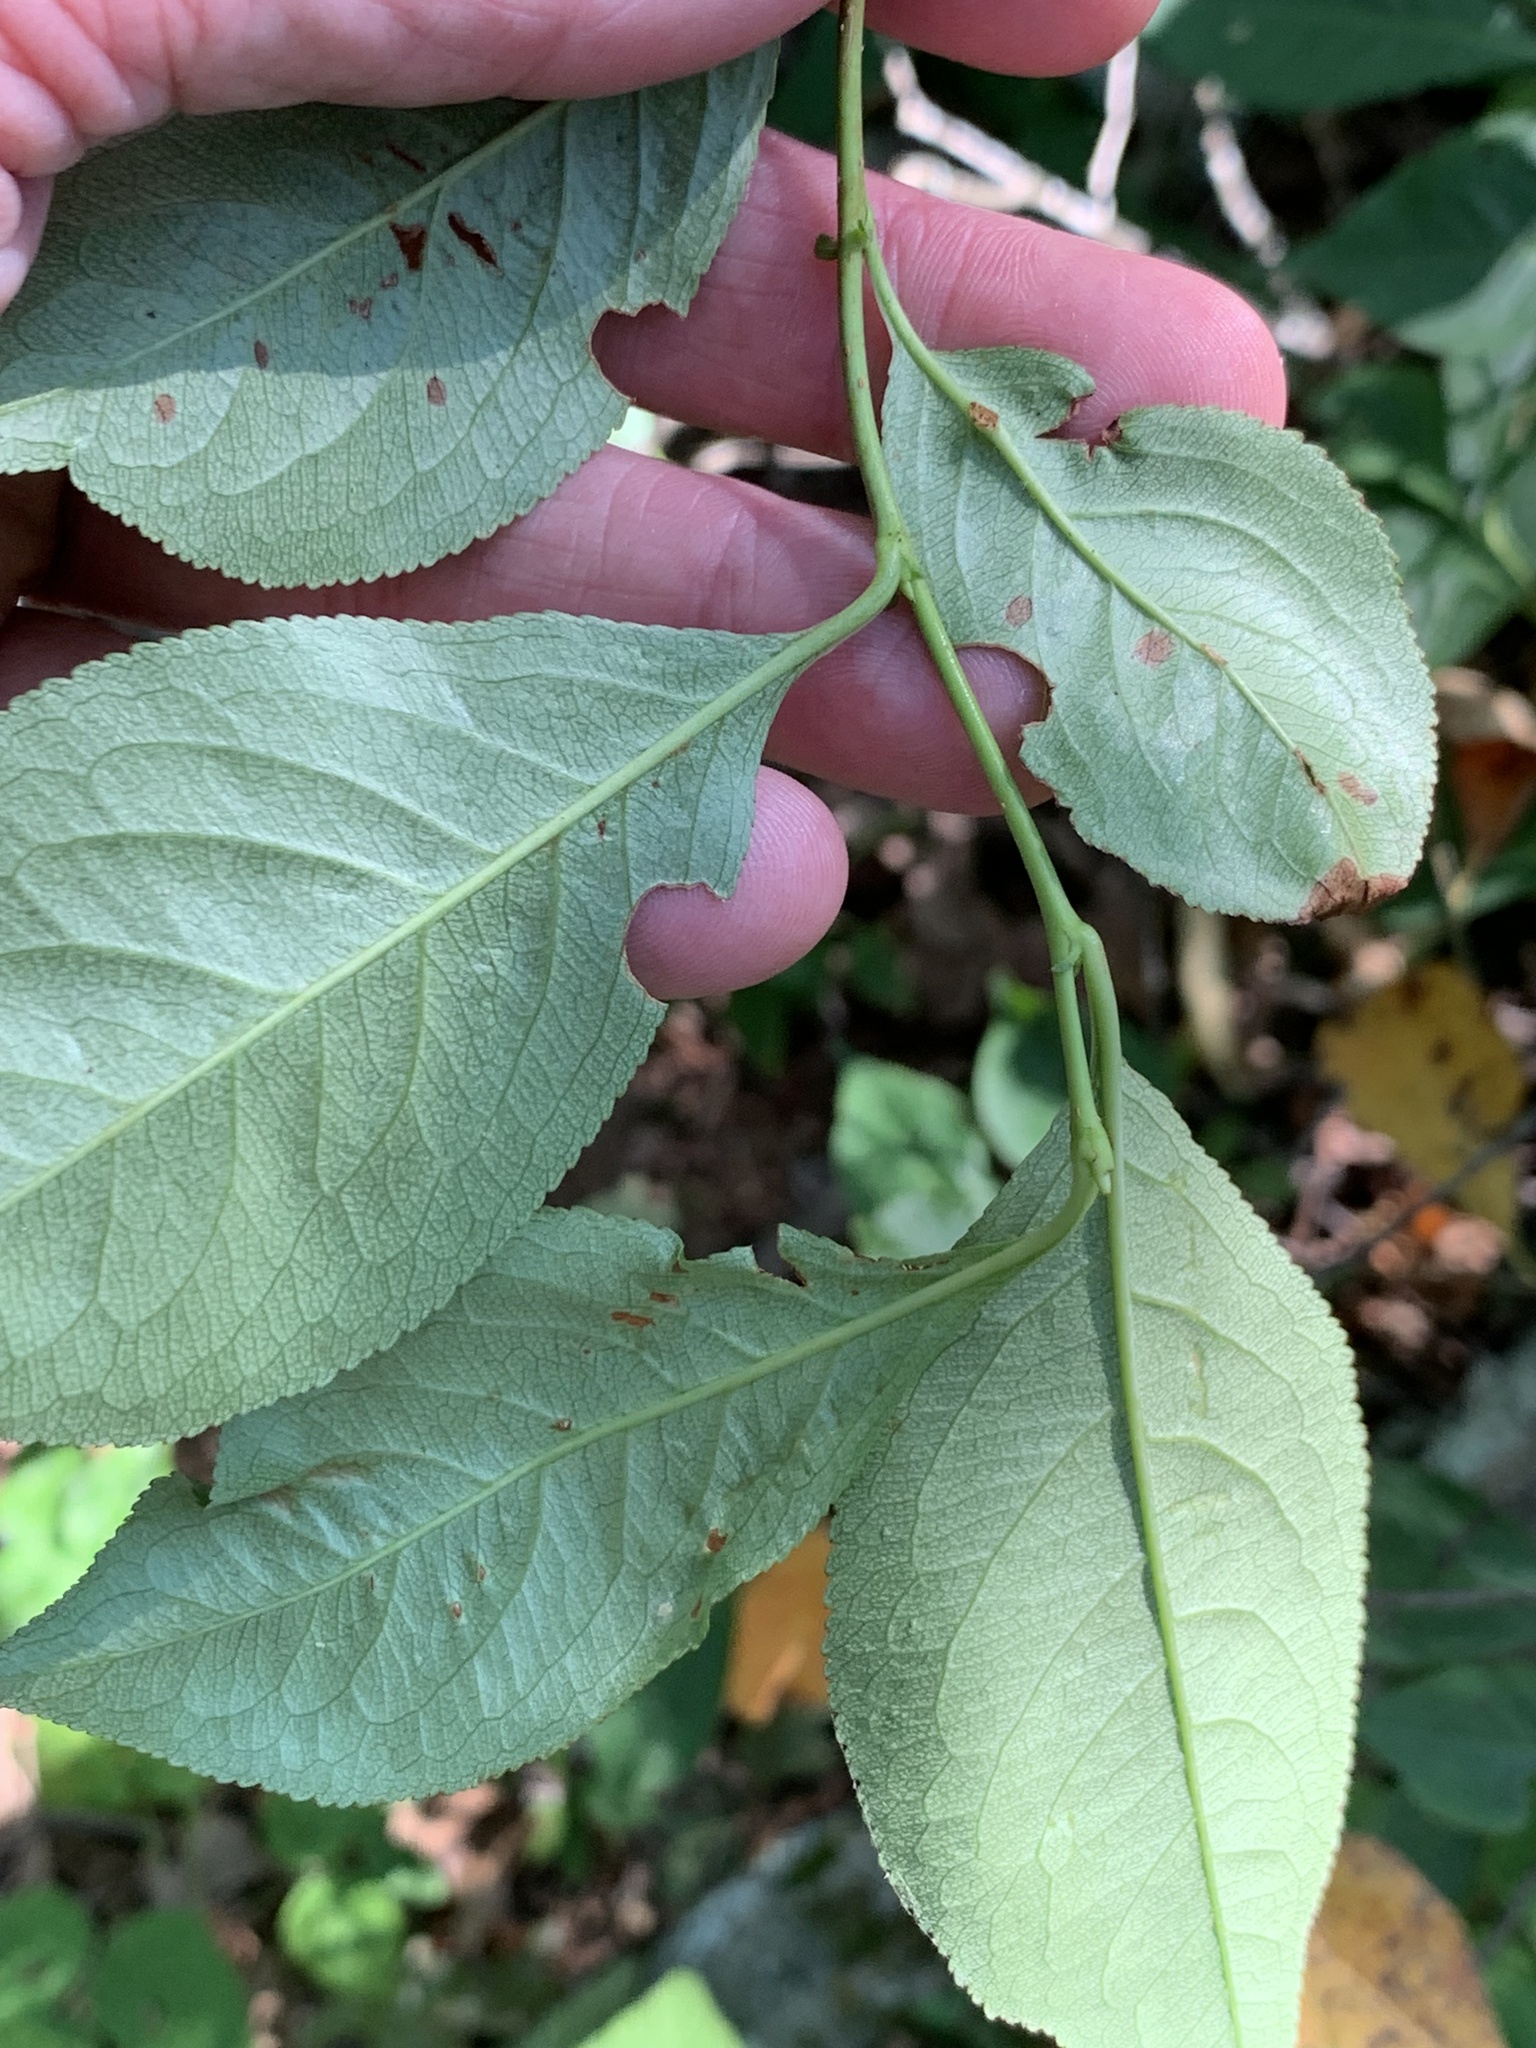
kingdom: Plantae
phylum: Tracheophyta
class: Magnoliopsida
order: Aquifoliales
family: Aquifoliaceae
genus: Ilex
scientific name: Ilex montana
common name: Mountain winterberry
